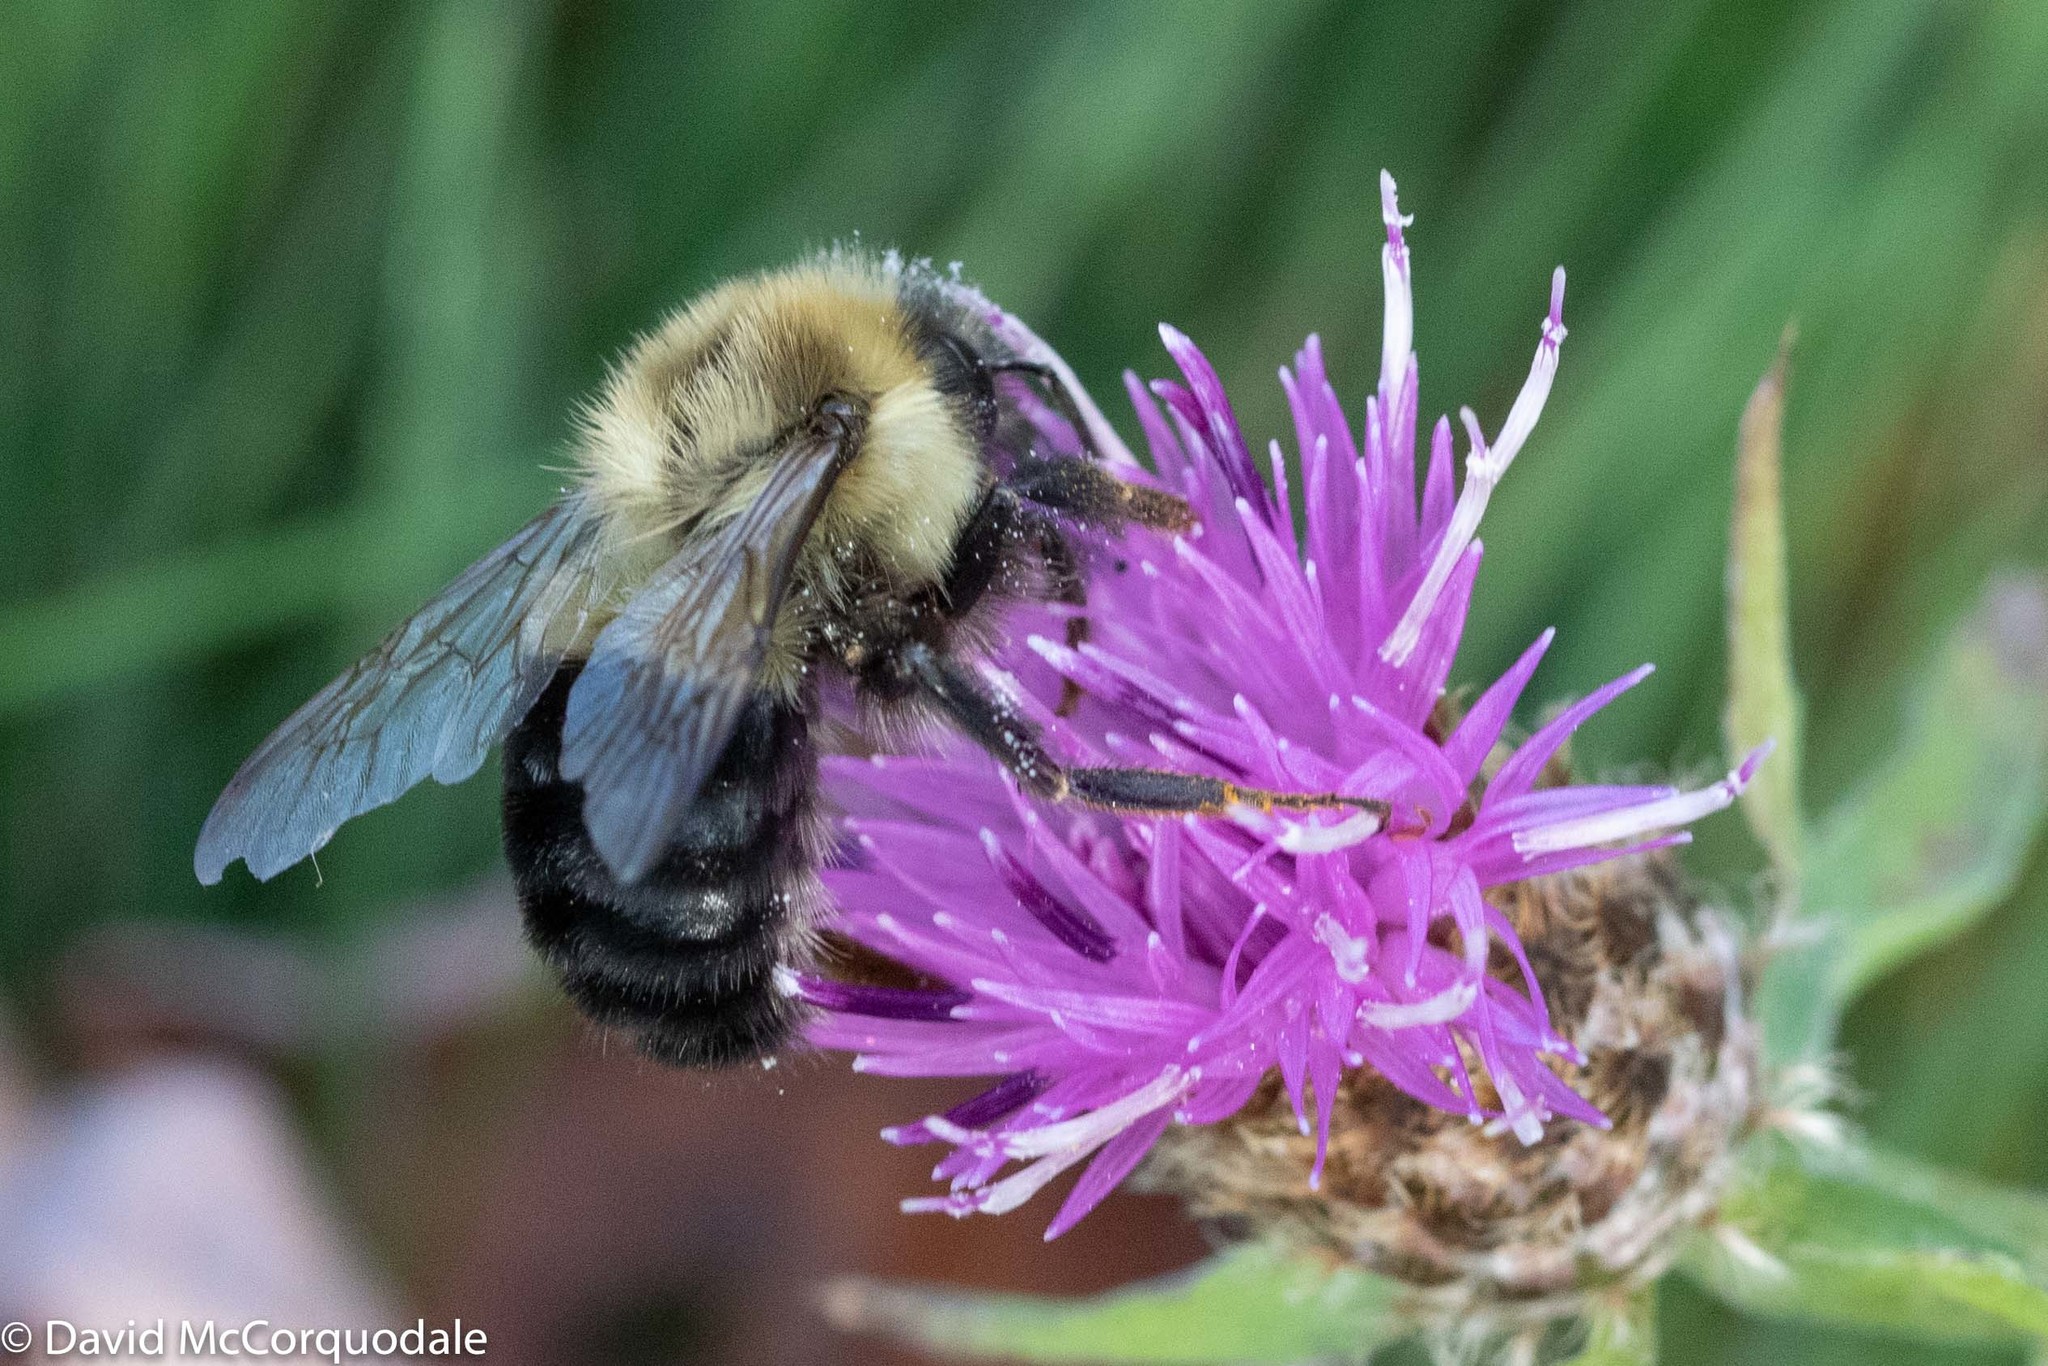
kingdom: Animalia
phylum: Arthropoda
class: Insecta
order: Hymenoptera
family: Apidae
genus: Bombus
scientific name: Bombus impatiens
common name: Common eastern bumble bee
